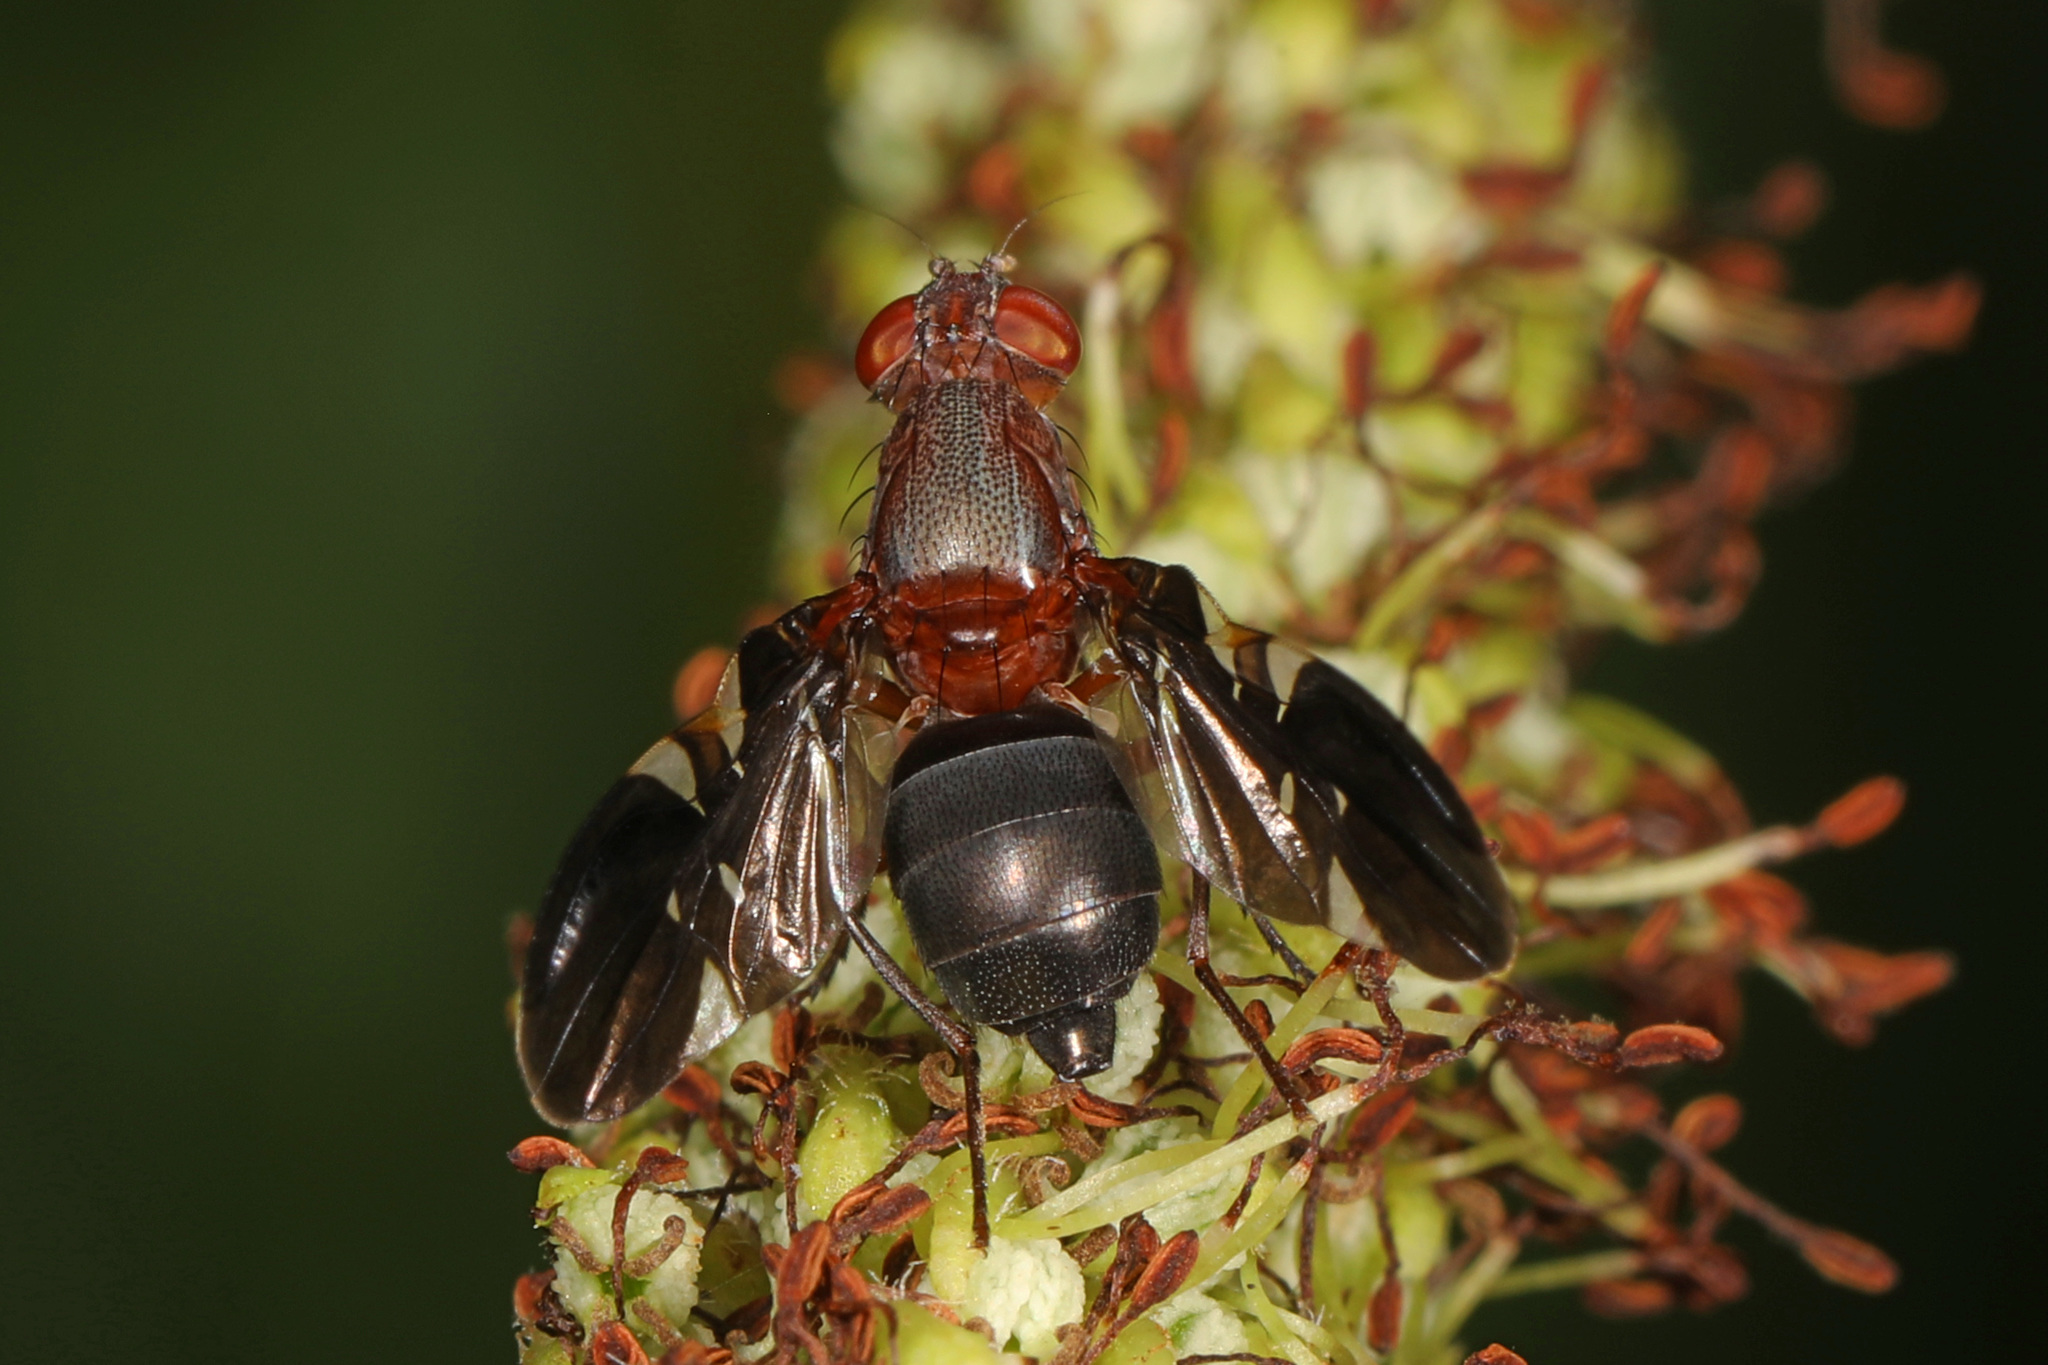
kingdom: Animalia
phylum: Arthropoda
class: Insecta
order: Diptera
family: Ulidiidae
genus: Delphinia
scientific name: Delphinia picta
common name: Common picture-winged fly
